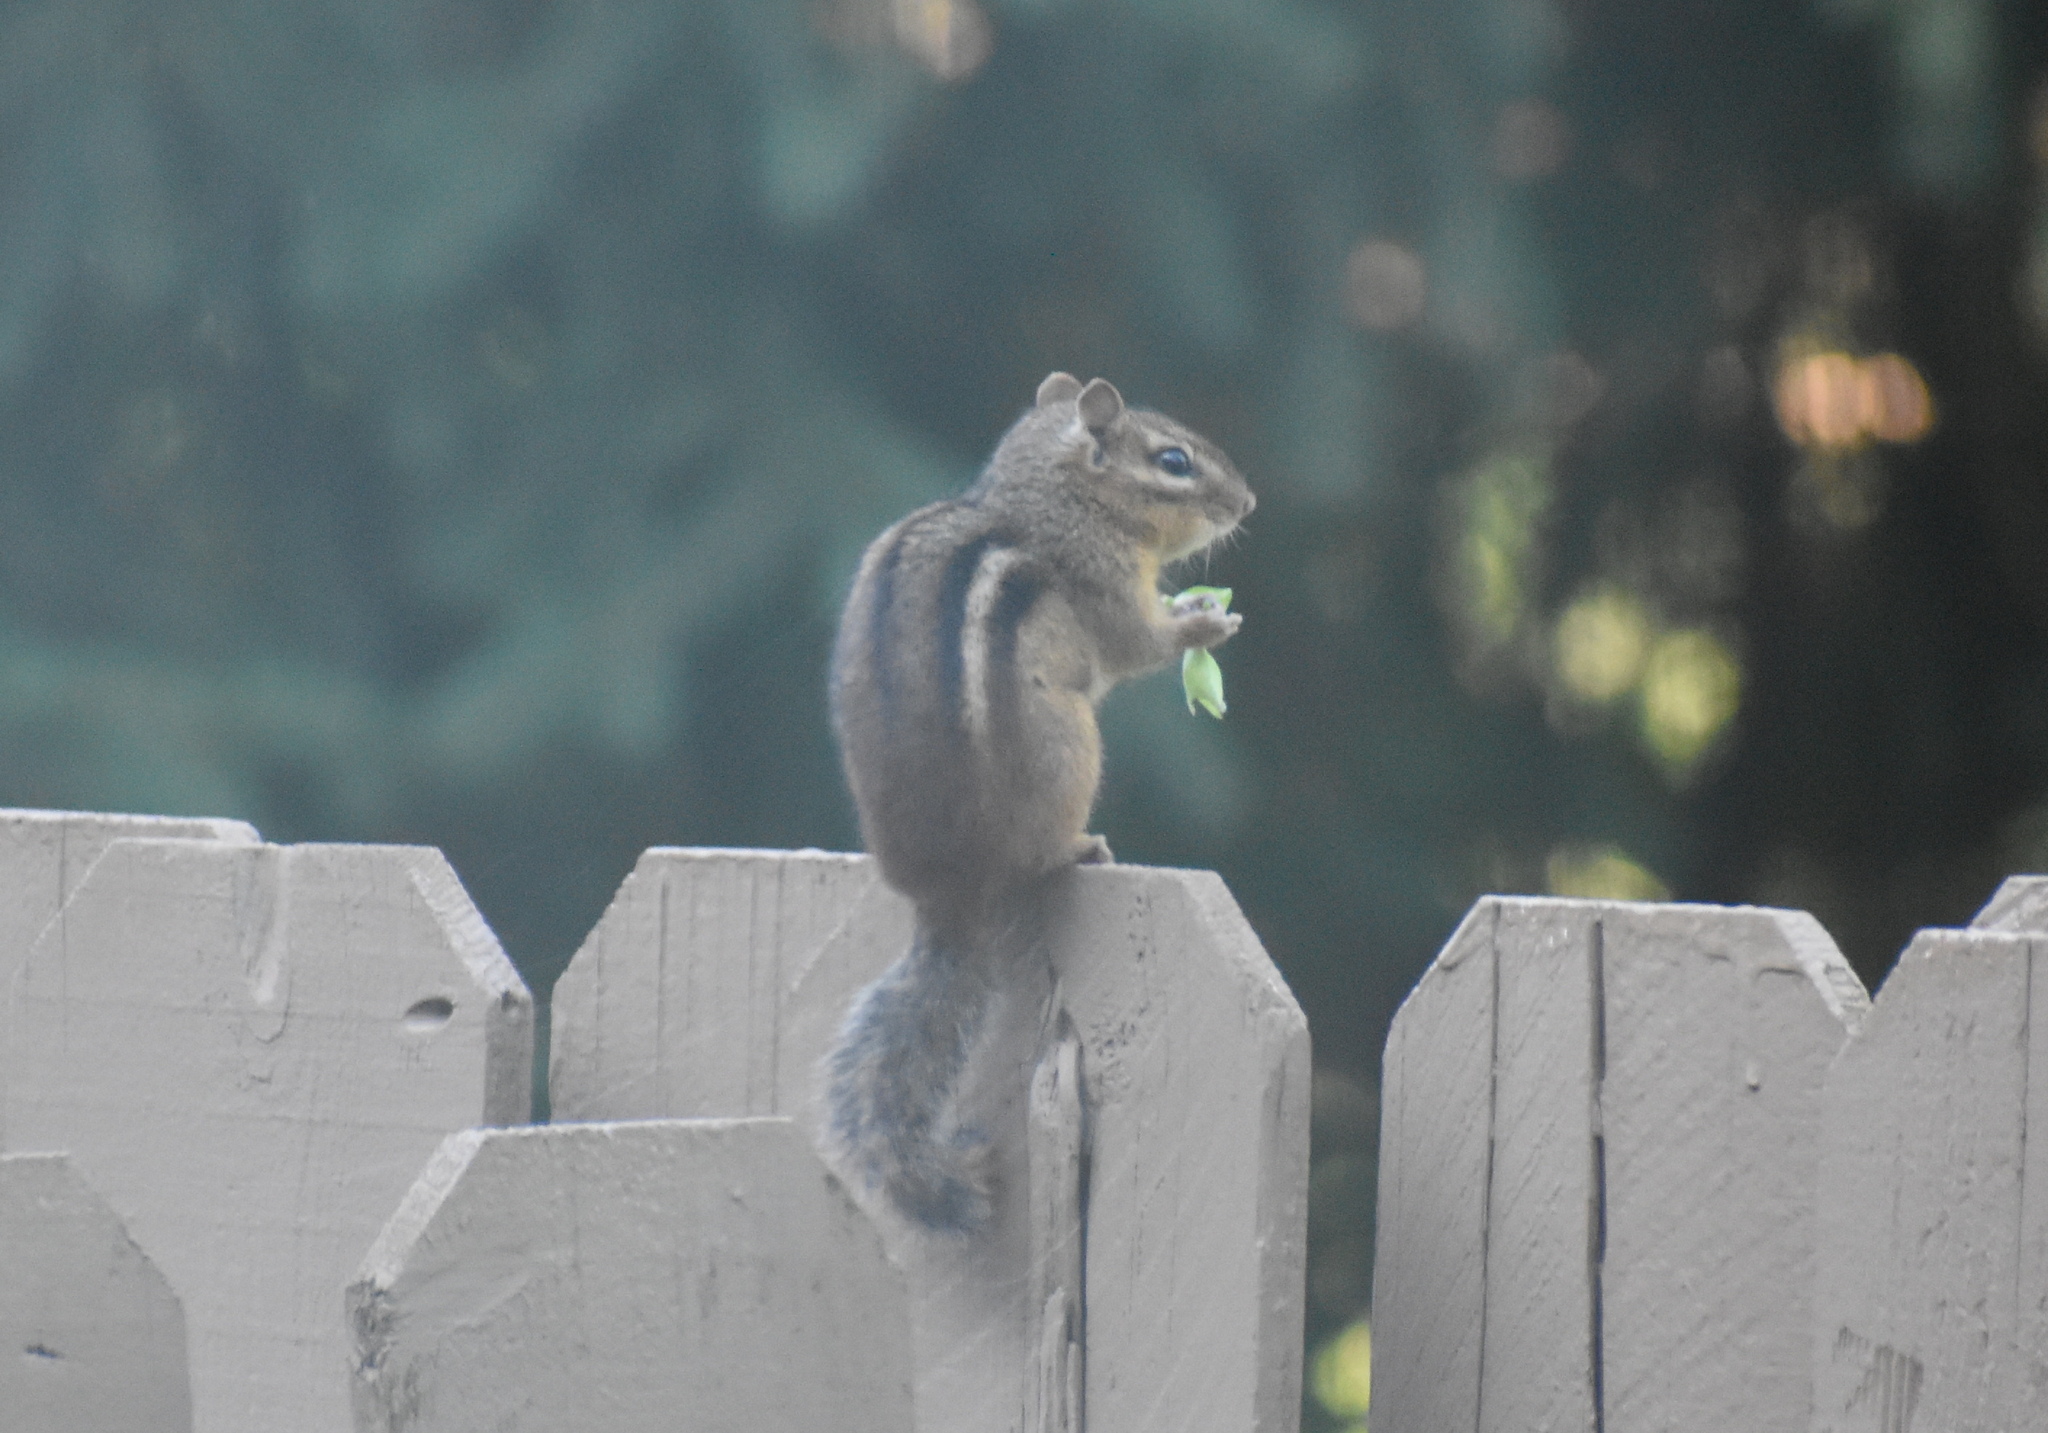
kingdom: Animalia
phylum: Chordata
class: Mammalia
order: Rodentia
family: Sciuridae
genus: Tamias
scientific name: Tamias striatus
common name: Eastern chipmunk
